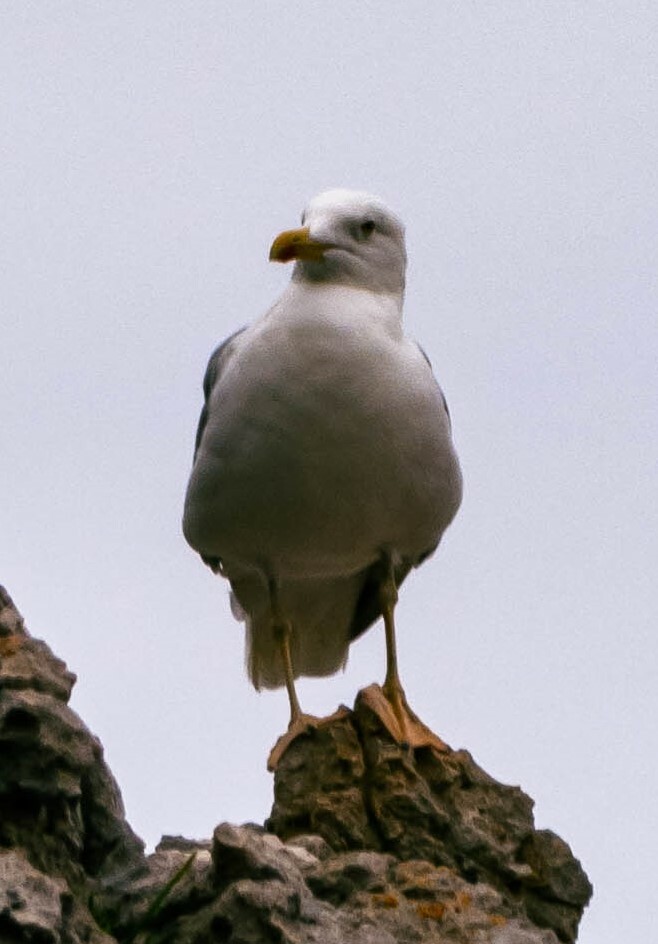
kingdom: Animalia
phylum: Chordata
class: Aves
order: Charadriiformes
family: Laridae
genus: Larus
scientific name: Larus michahellis
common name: Yellow-legged gull
